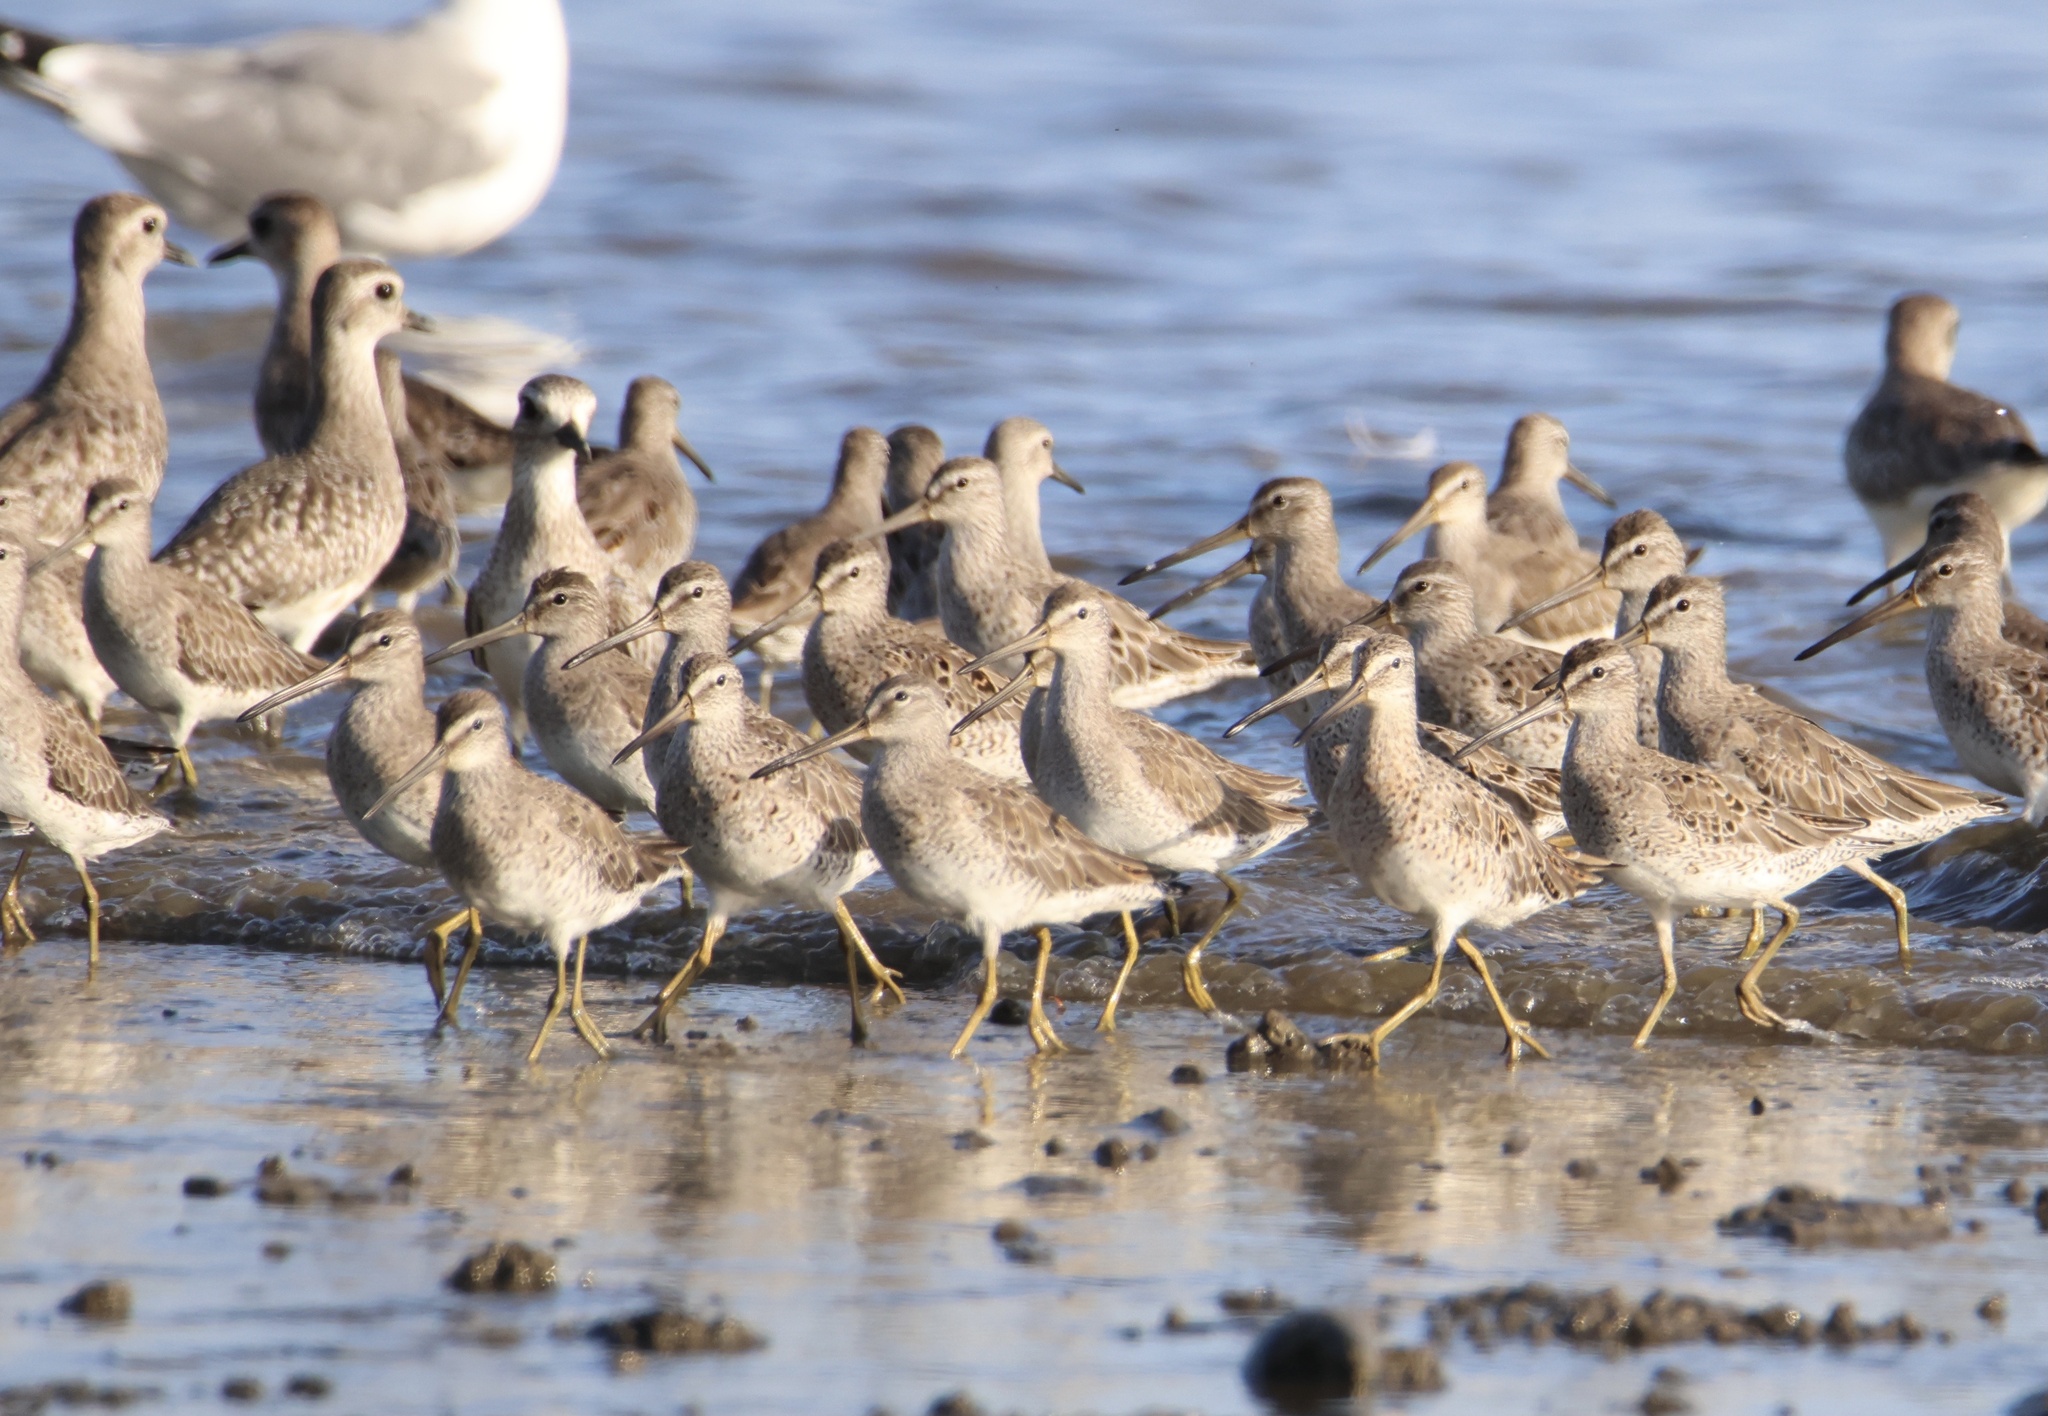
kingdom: Animalia
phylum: Chordata
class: Aves
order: Charadriiformes
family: Scolopacidae
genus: Limnodromus
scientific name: Limnodromus griseus
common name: Short-billed dowitcher
